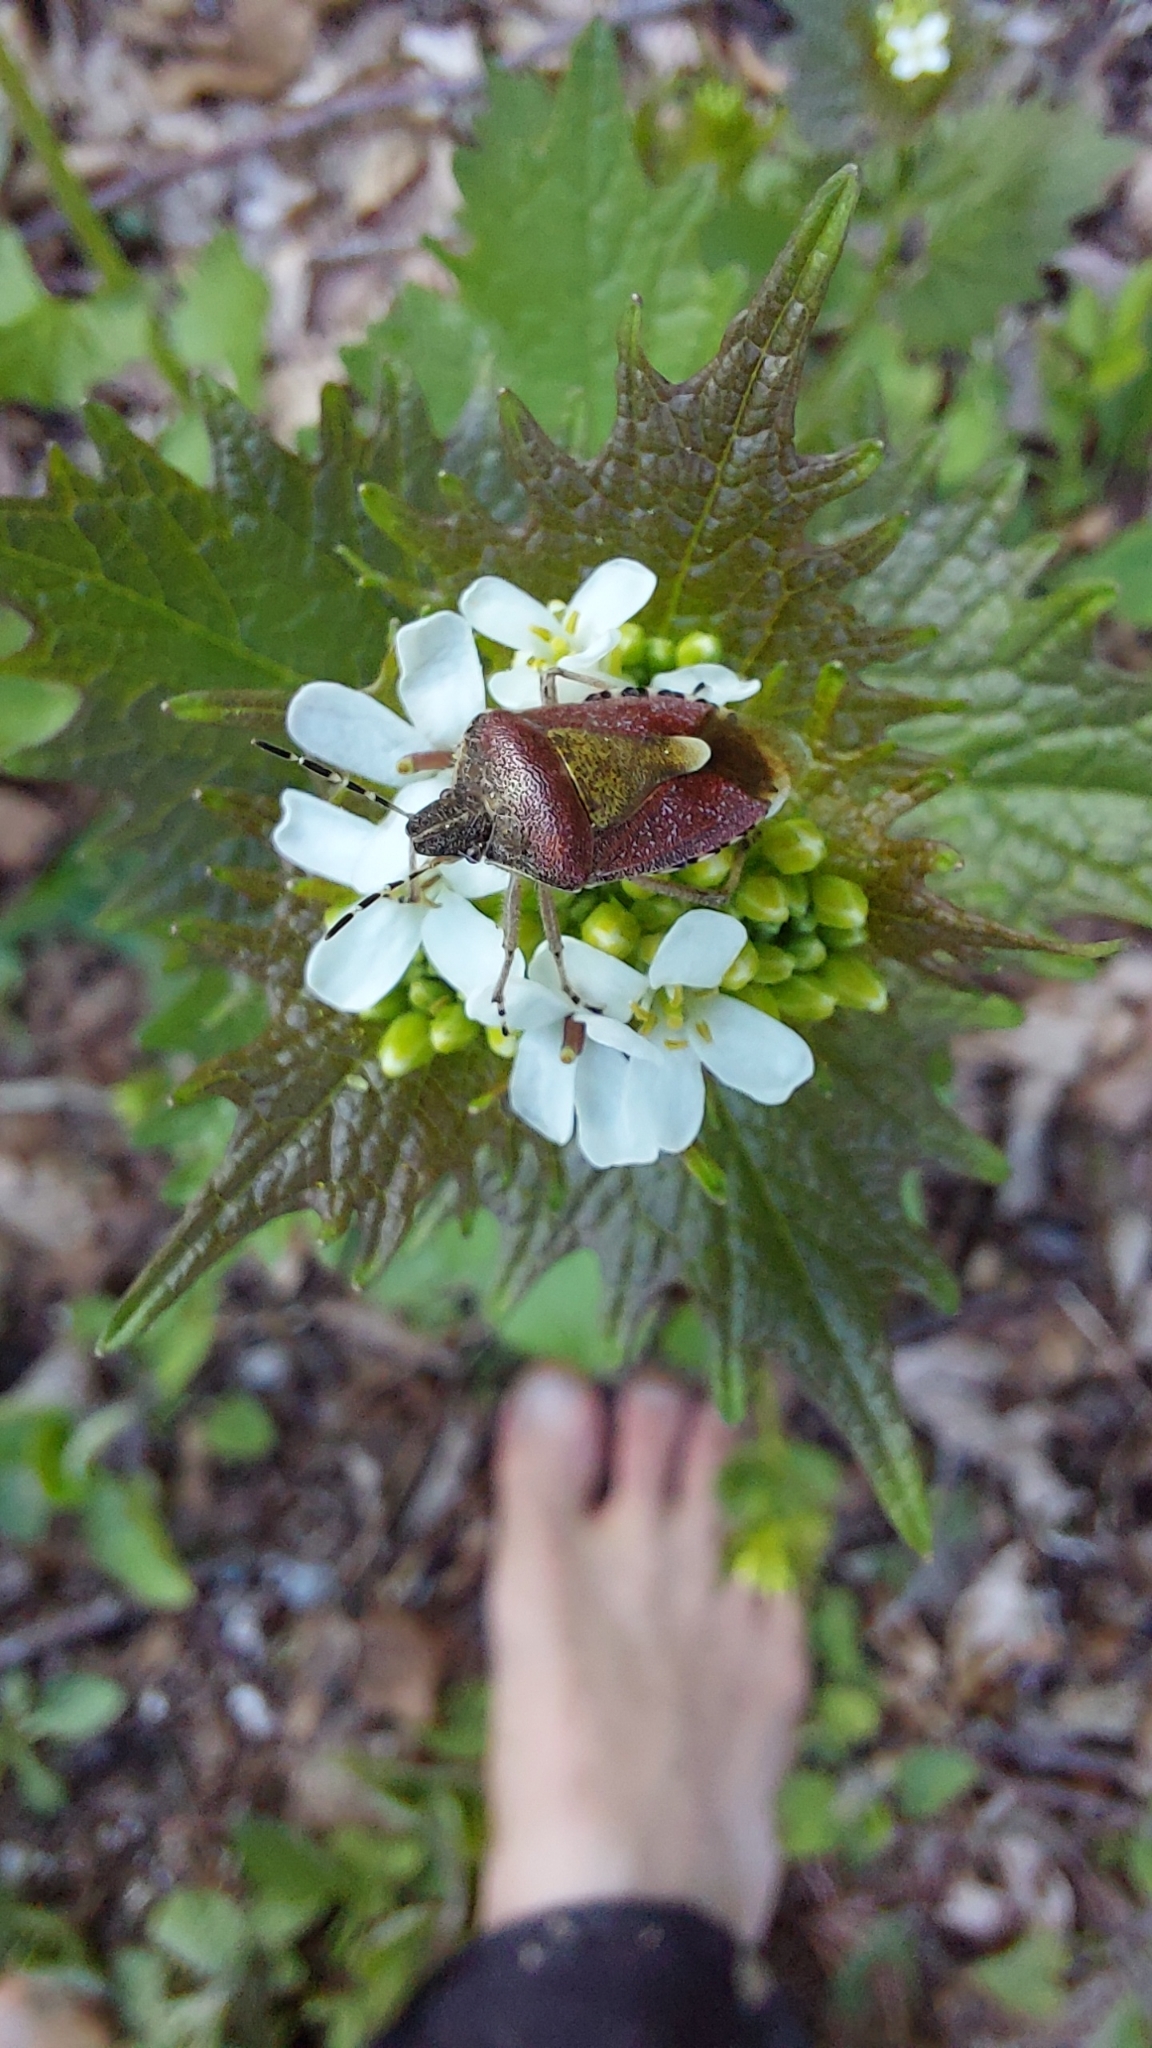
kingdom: Animalia
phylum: Arthropoda
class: Insecta
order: Hemiptera
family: Pentatomidae
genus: Dolycoris
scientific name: Dolycoris baccarum
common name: Sloe bug
